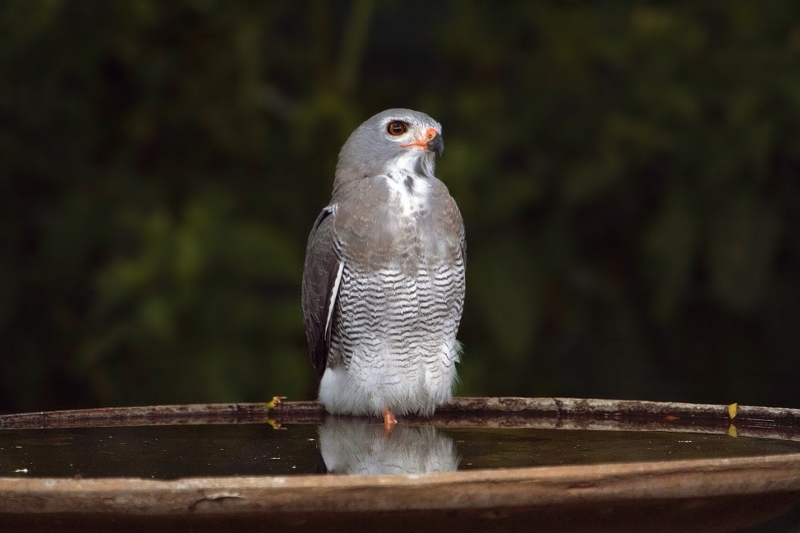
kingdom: Animalia
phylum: Chordata
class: Aves
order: Accipitriformes
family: Accipitridae
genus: Kaupifalco
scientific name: Kaupifalco monogrammicus
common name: Lizard buzzard
